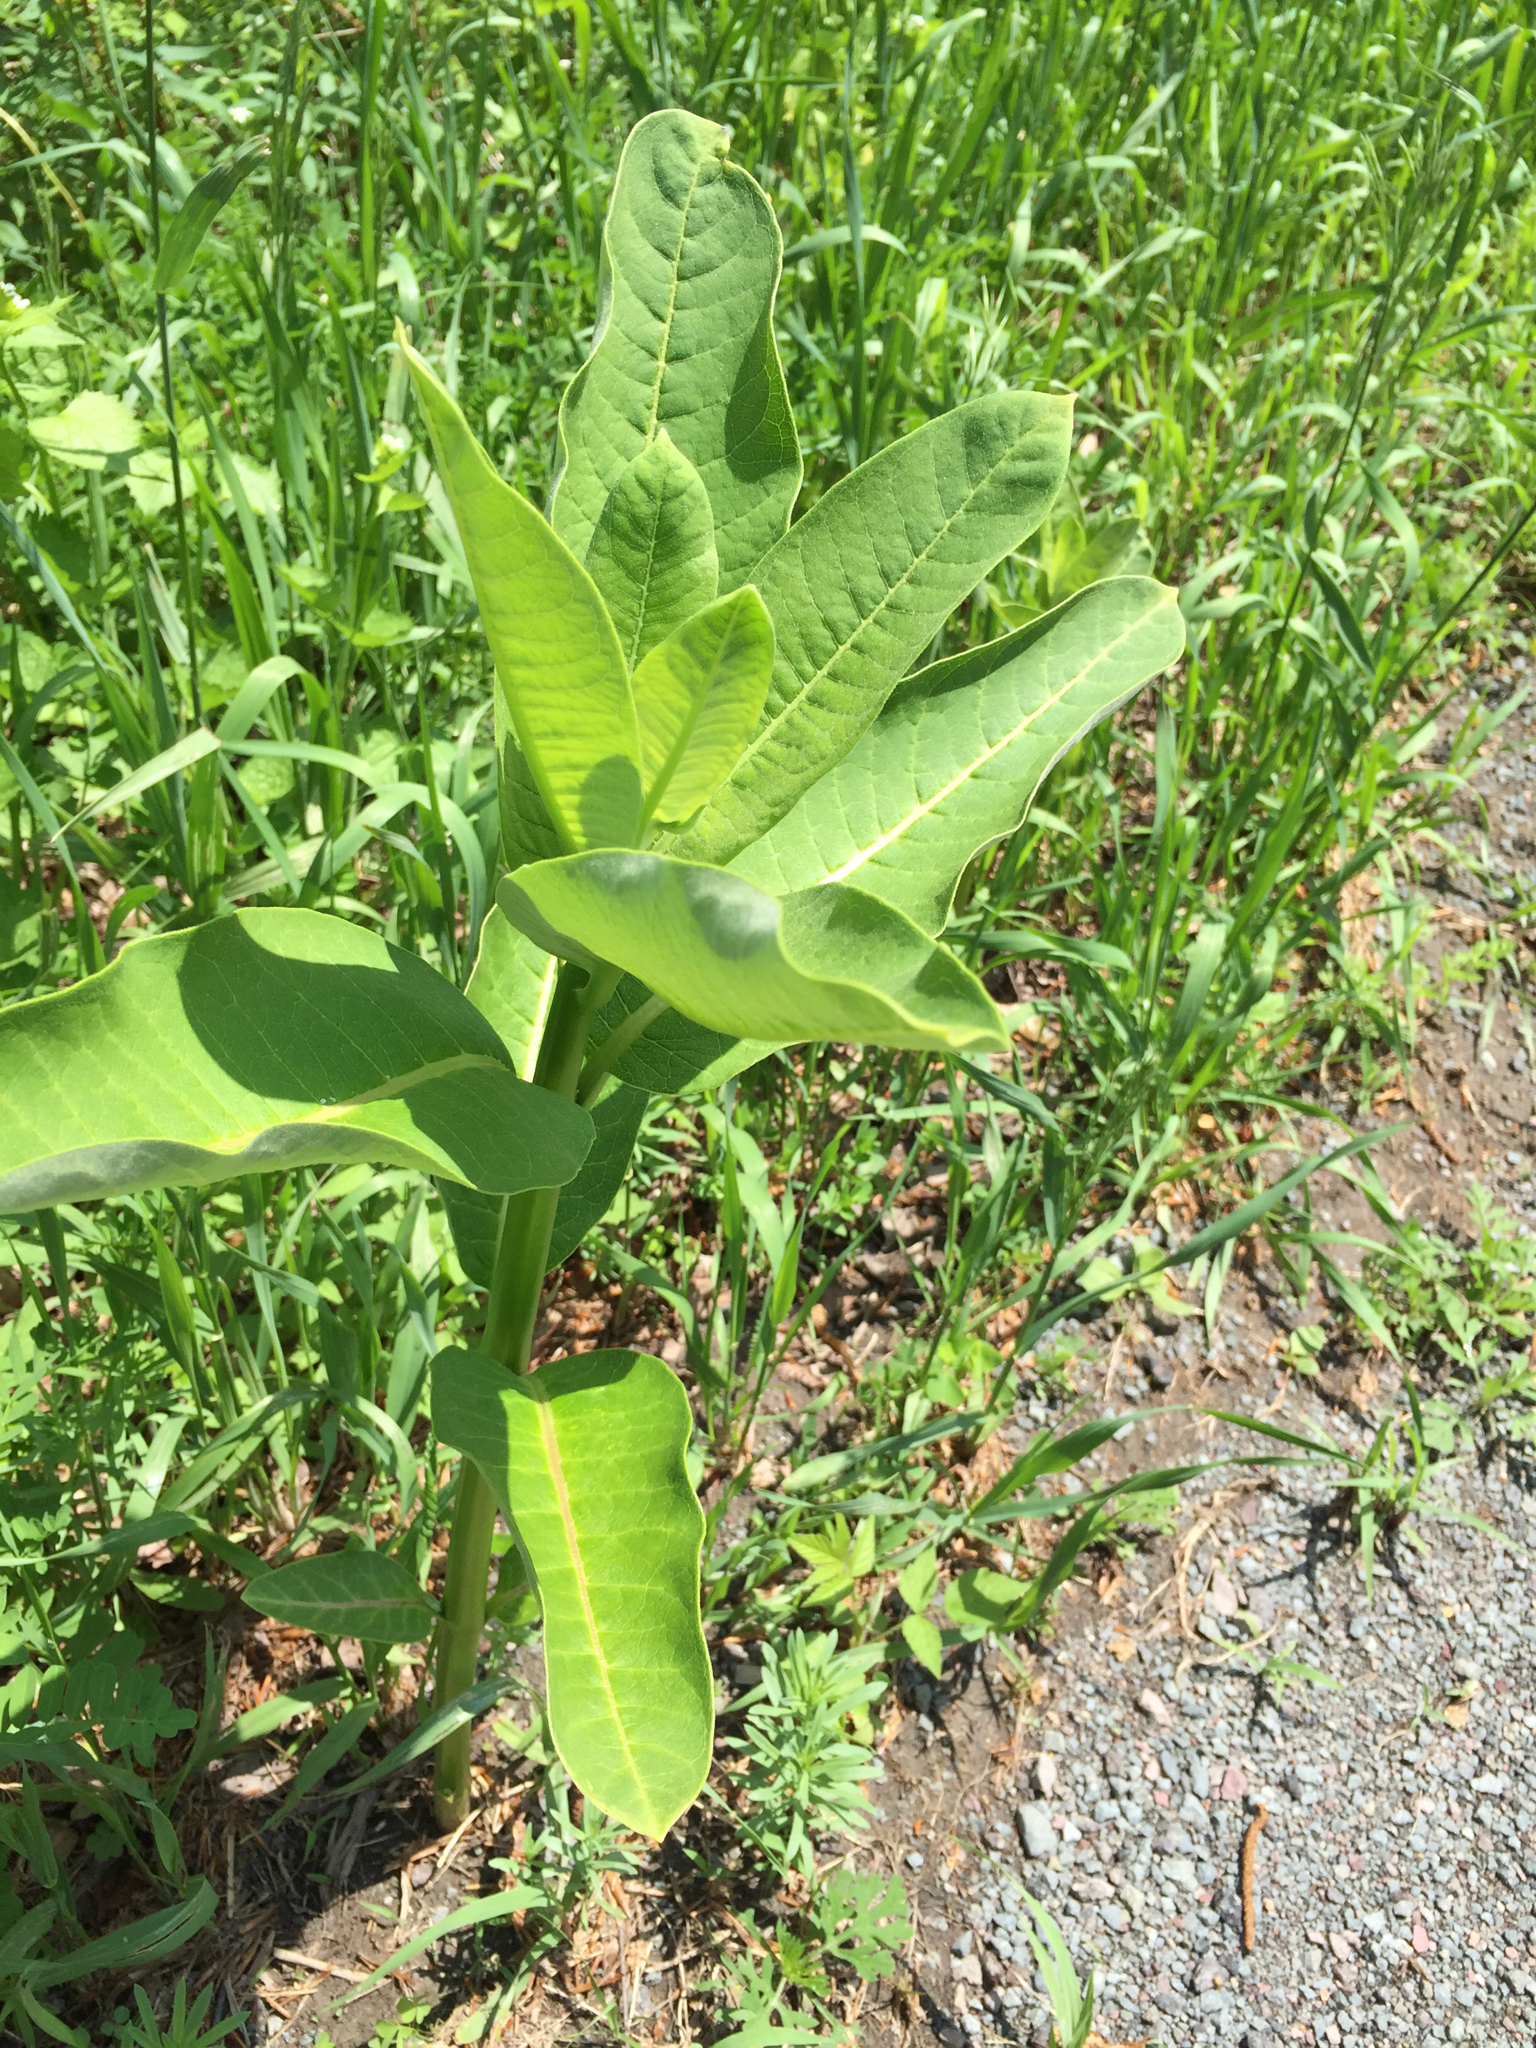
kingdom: Plantae
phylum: Tracheophyta
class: Magnoliopsida
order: Gentianales
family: Apocynaceae
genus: Asclepias
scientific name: Asclepias syriaca
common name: Common milkweed
